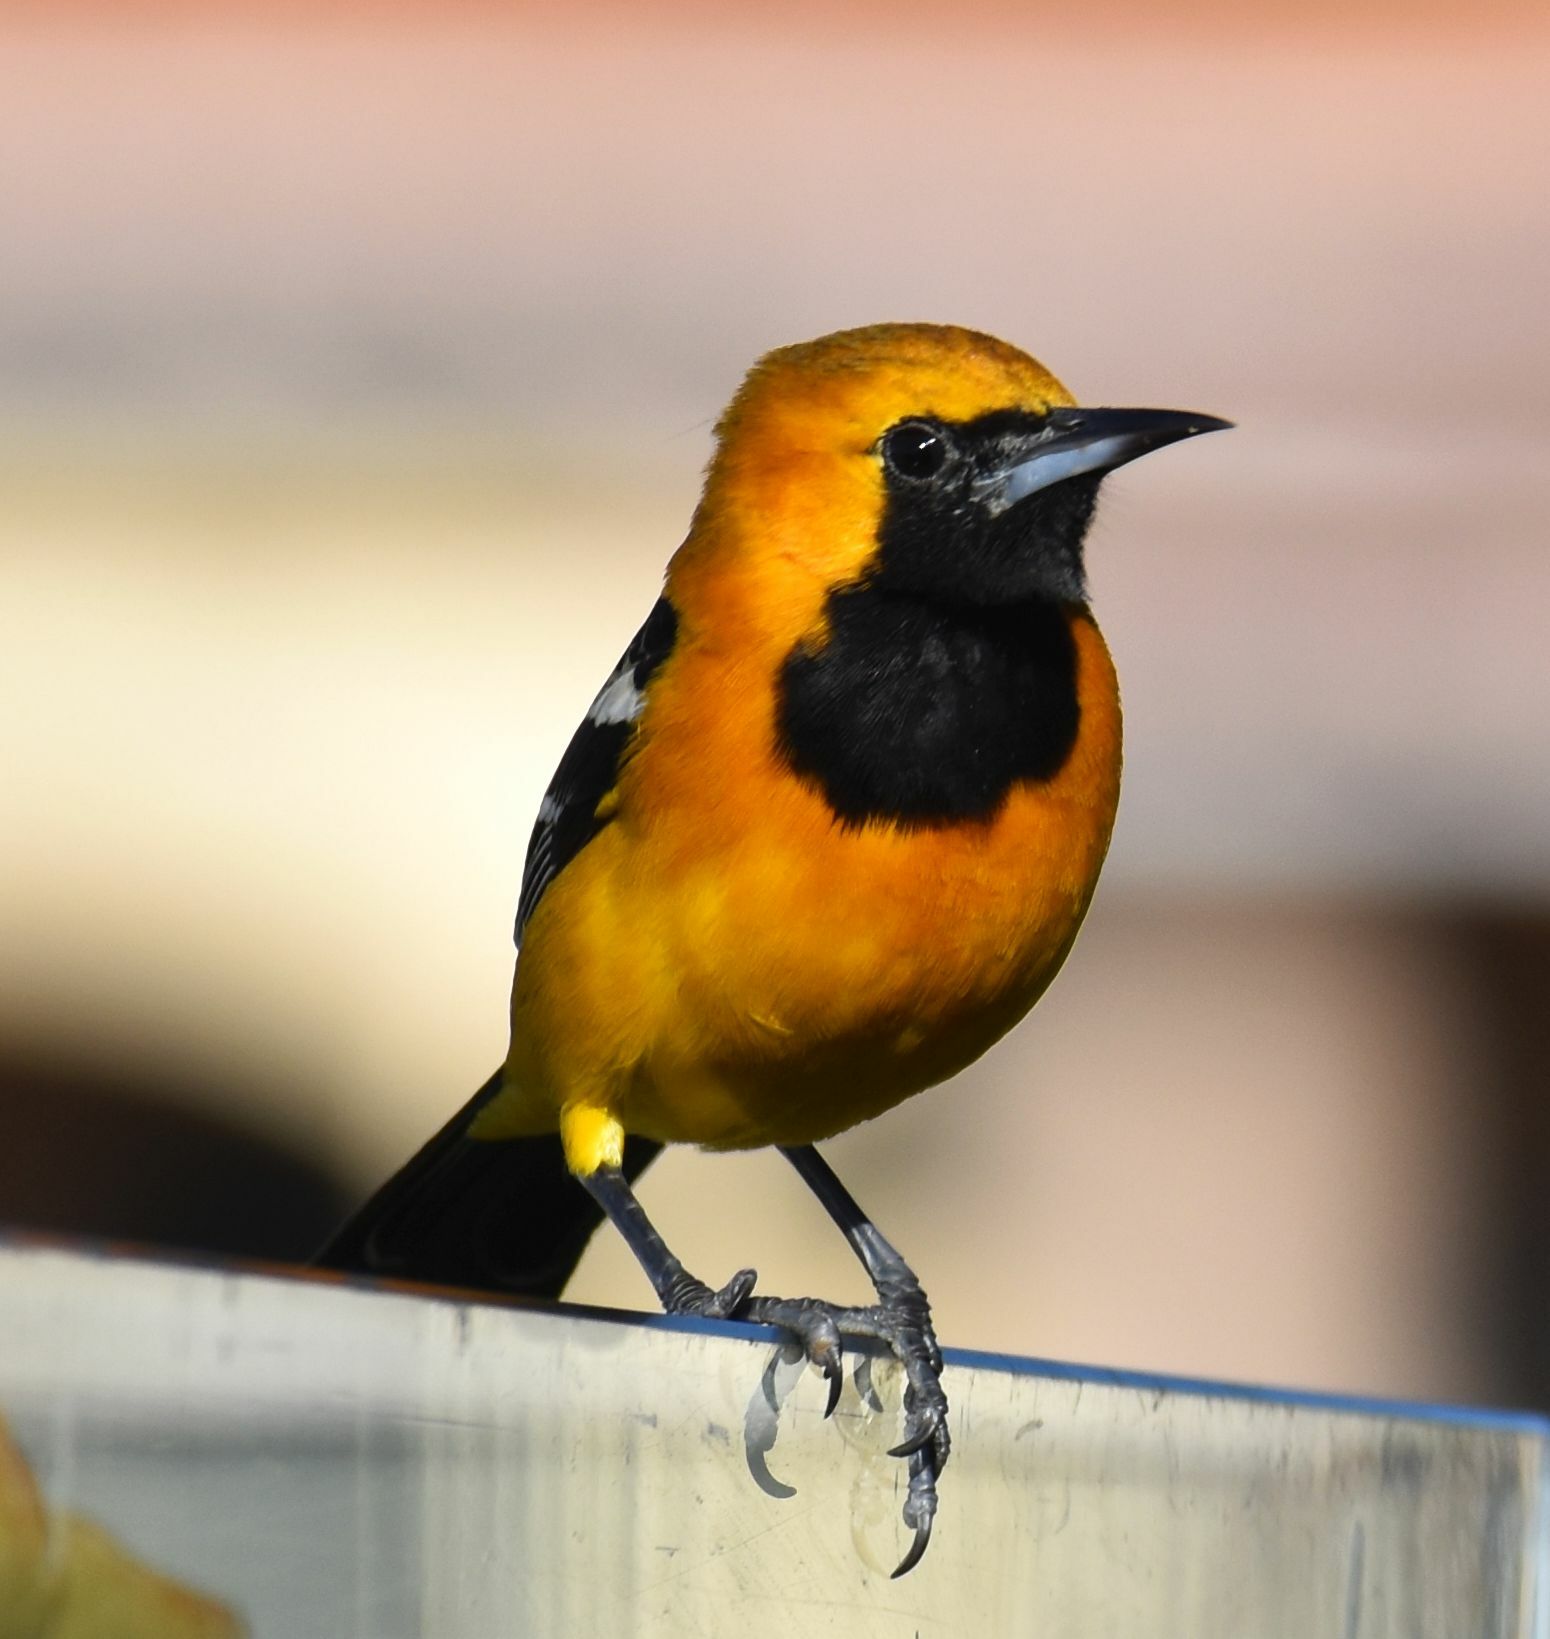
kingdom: Animalia
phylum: Chordata
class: Aves
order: Passeriformes
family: Icteridae
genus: Icterus
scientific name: Icterus cucullatus
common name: Hooded oriole
